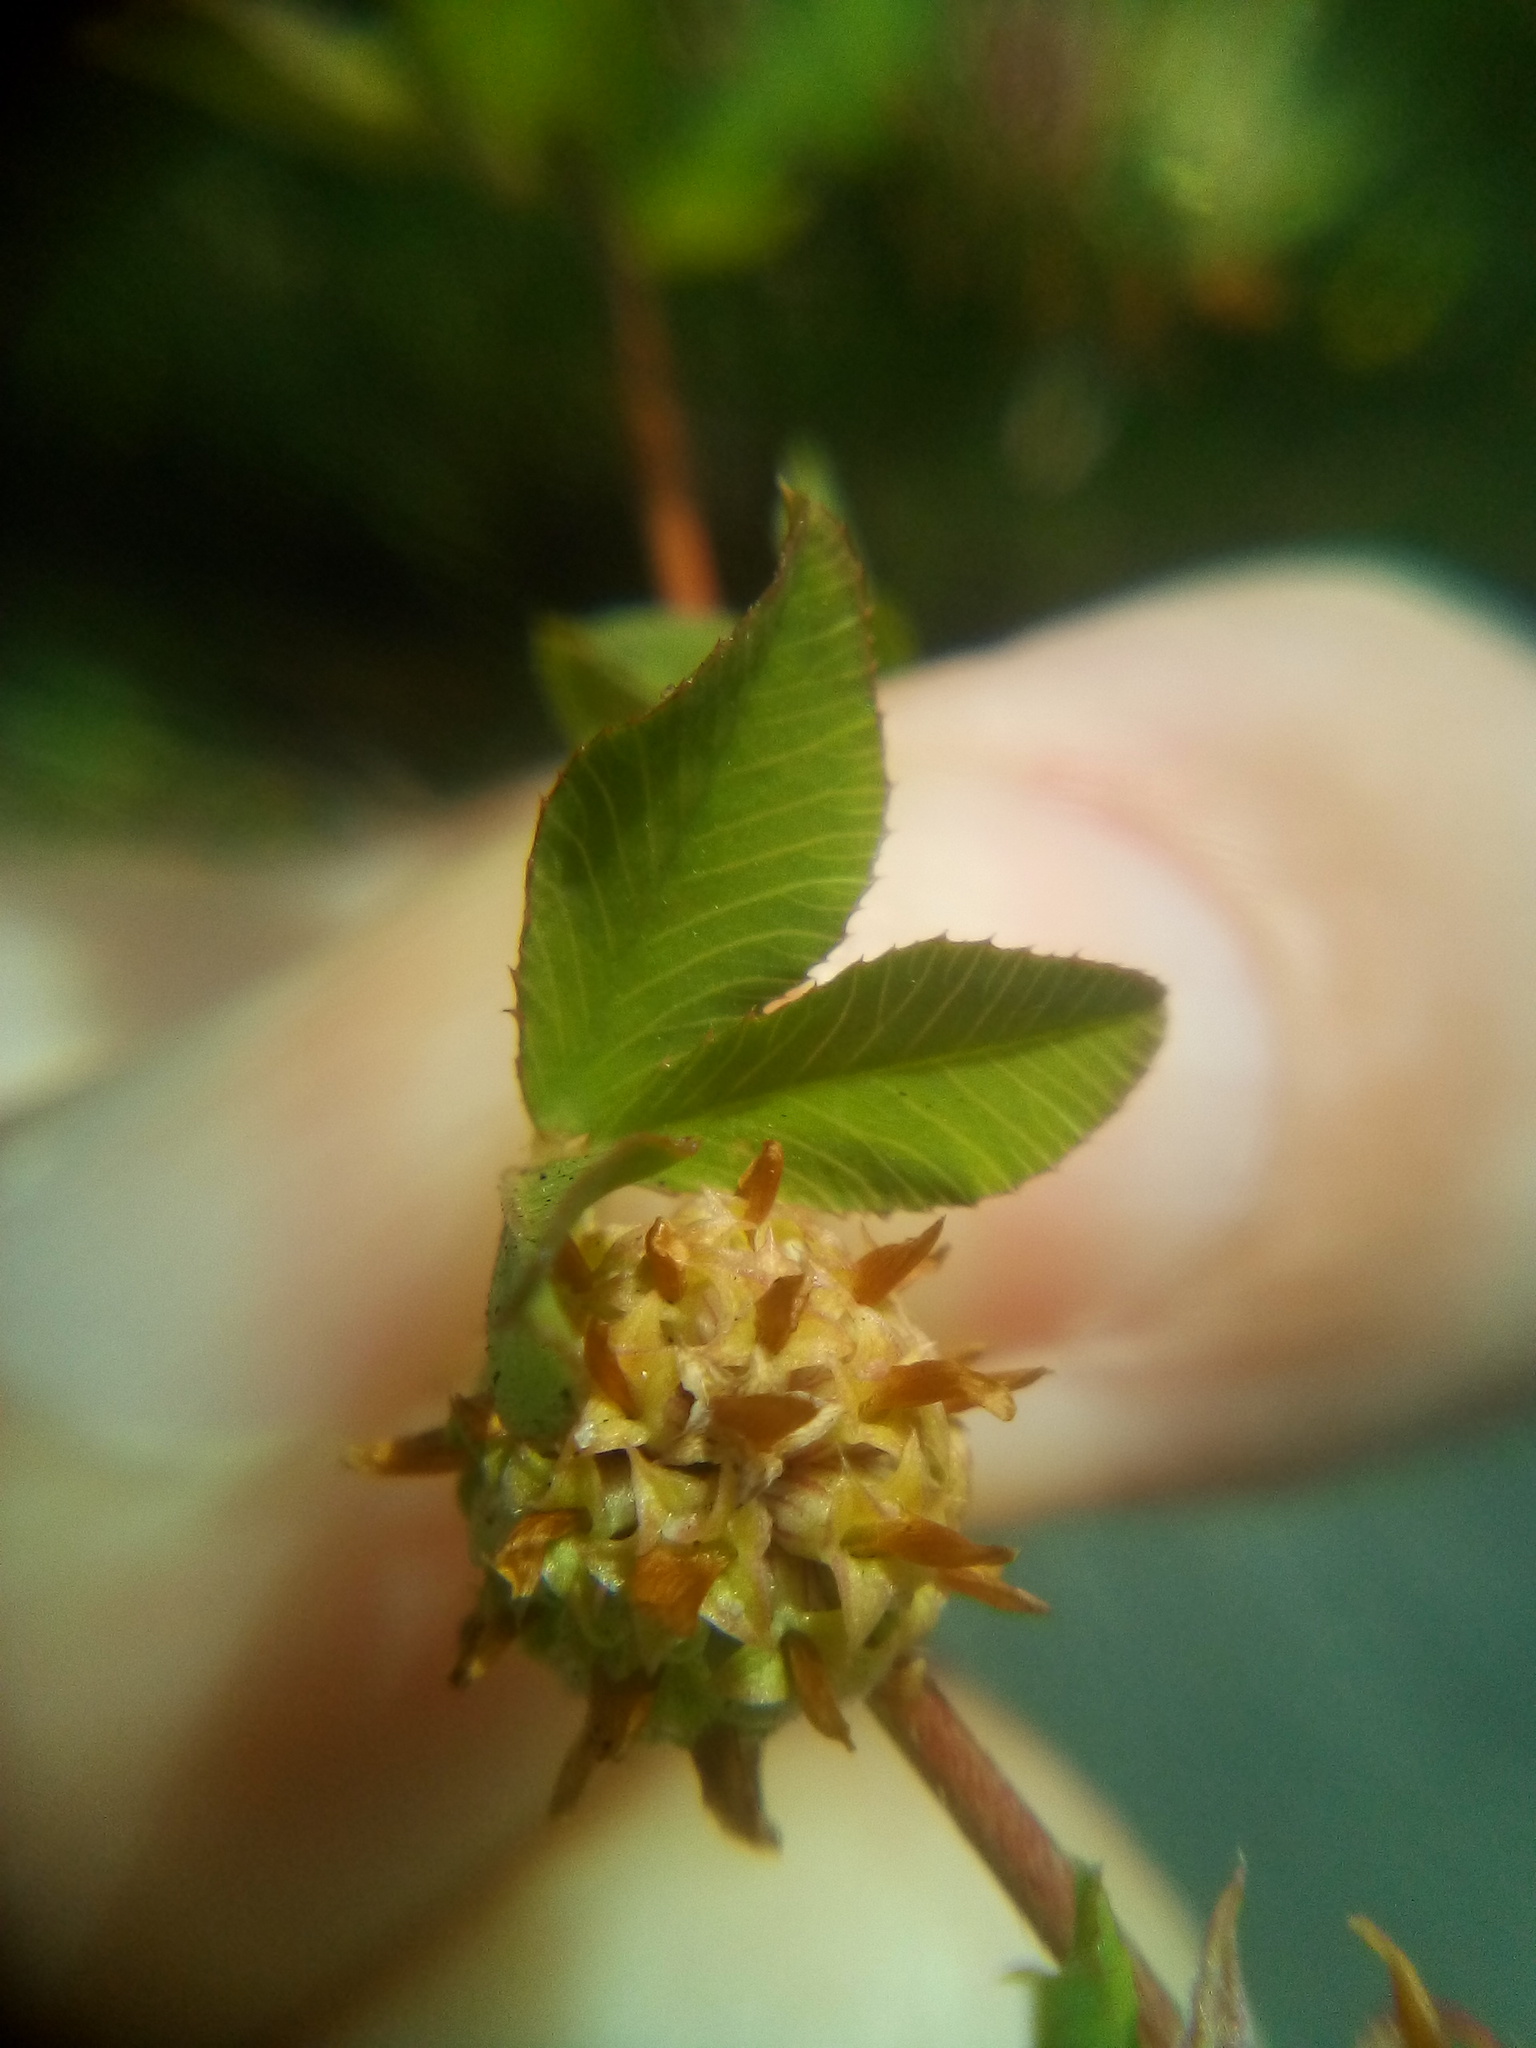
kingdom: Plantae
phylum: Tracheophyta
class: Magnoliopsida
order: Fabales
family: Fabaceae
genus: Trifolium
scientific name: Trifolium glomeratum
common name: Clustered clover
